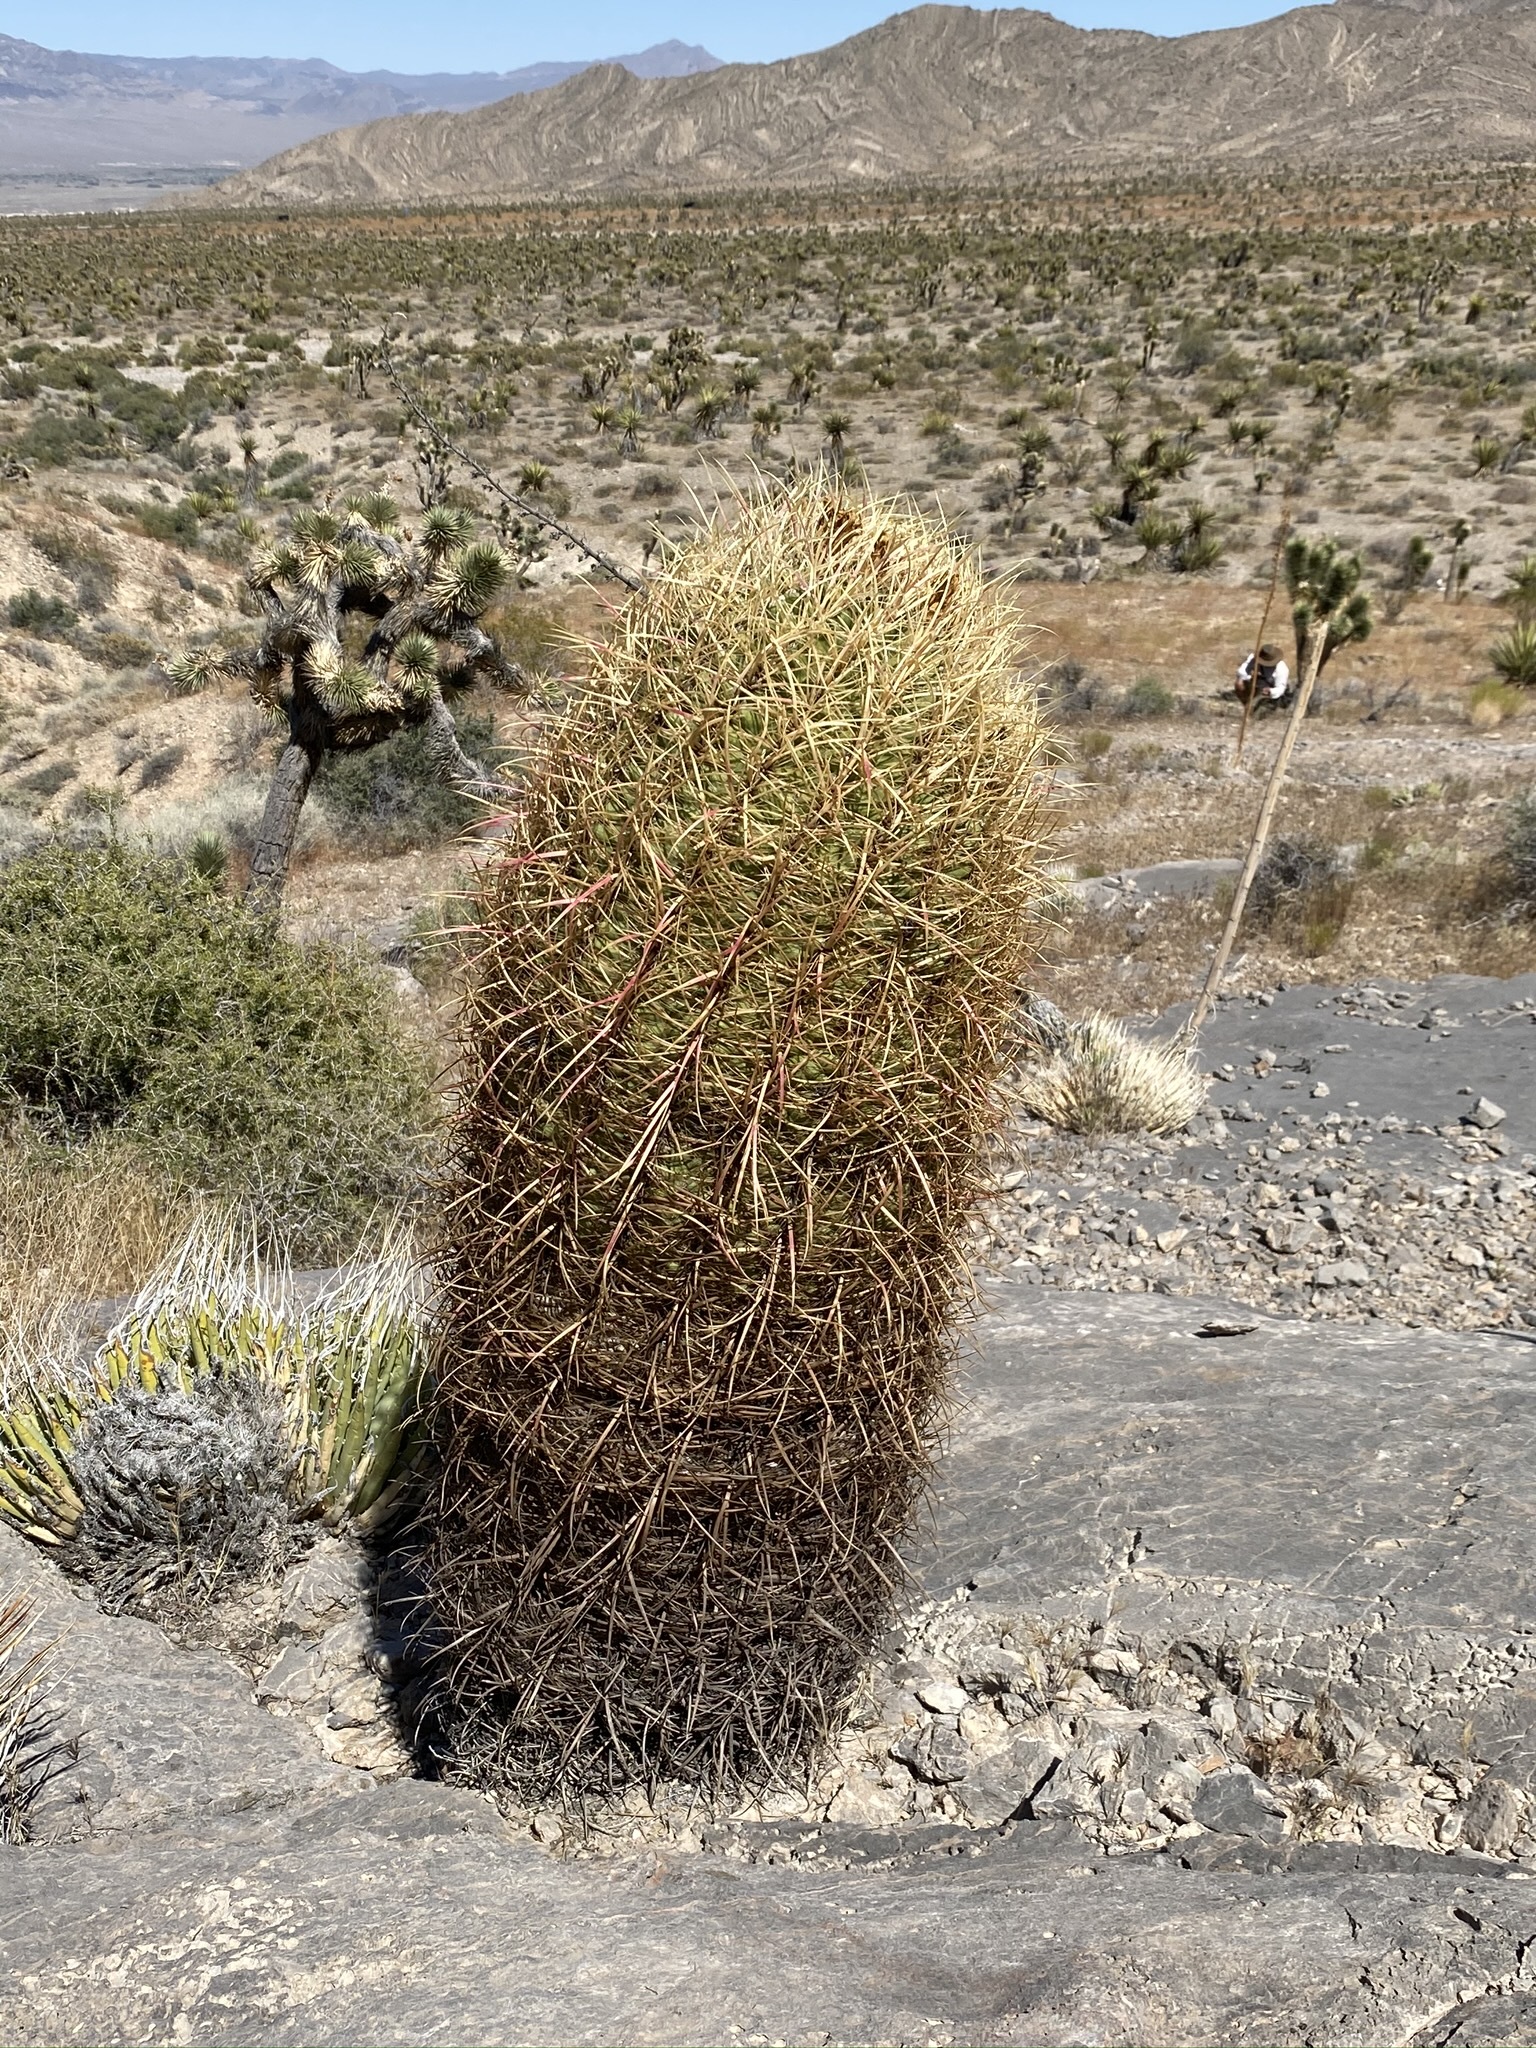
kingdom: Plantae
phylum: Tracheophyta
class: Magnoliopsida
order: Caryophyllales
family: Cactaceae
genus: Ferocactus
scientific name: Ferocactus cylindraceus
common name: California barrel cactus
